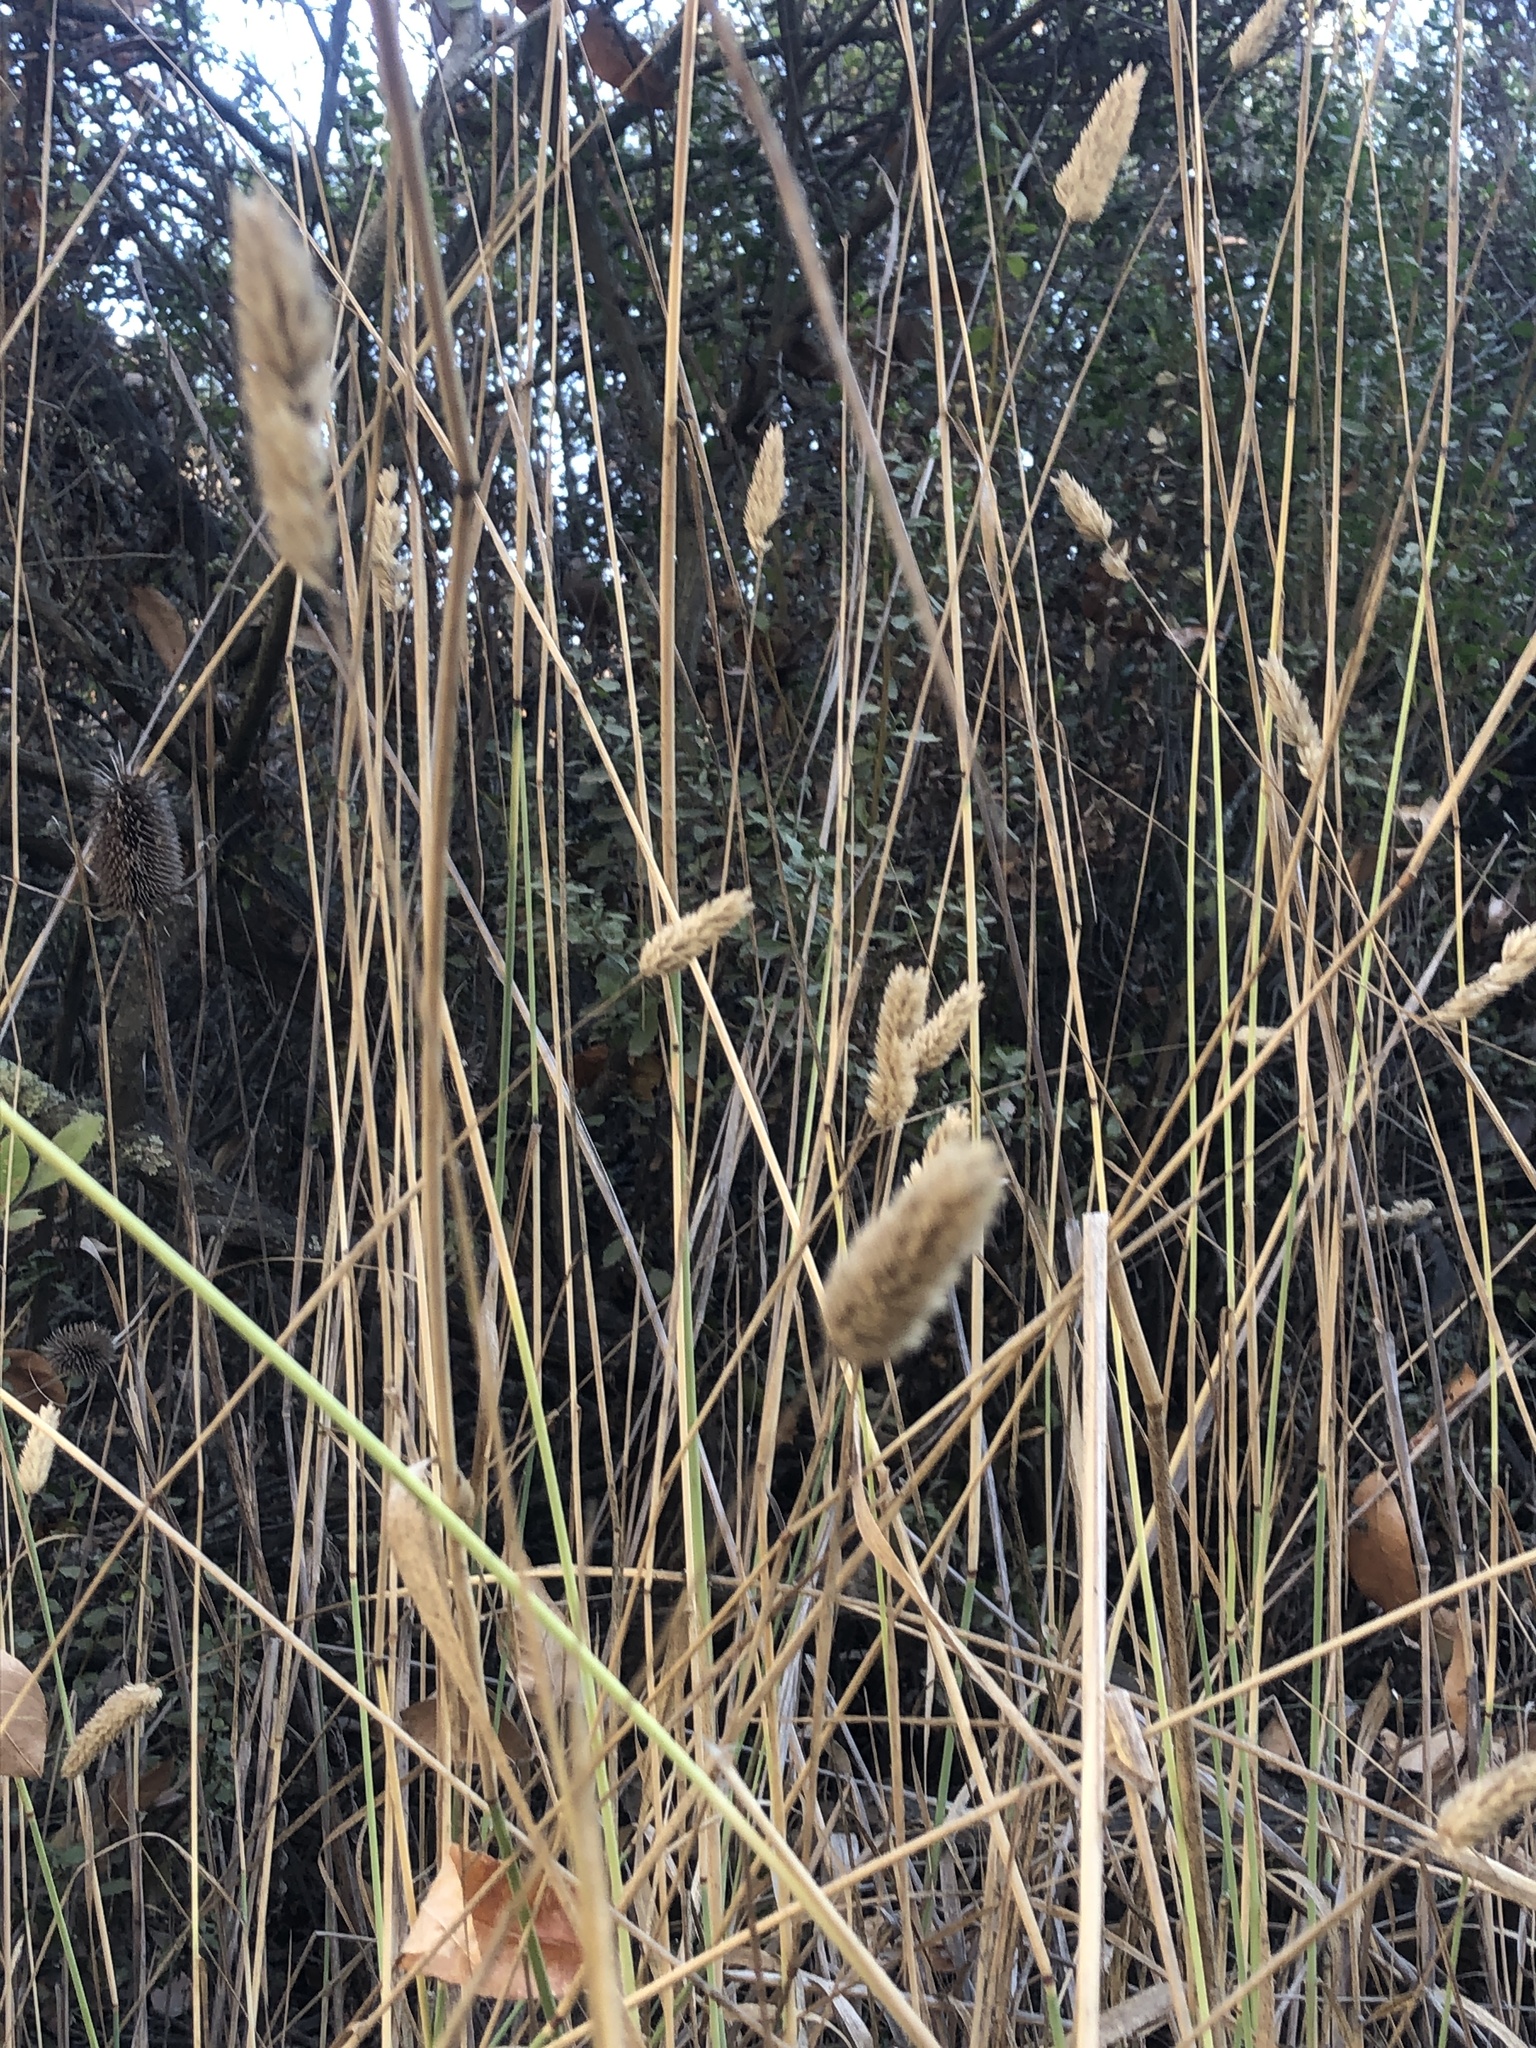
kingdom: Plantae
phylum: Tracheophyta
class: Liliopsida
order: Poales
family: Poaceae
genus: Phalaris
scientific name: Phalaris aquatica
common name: Bulbous canary-grass
